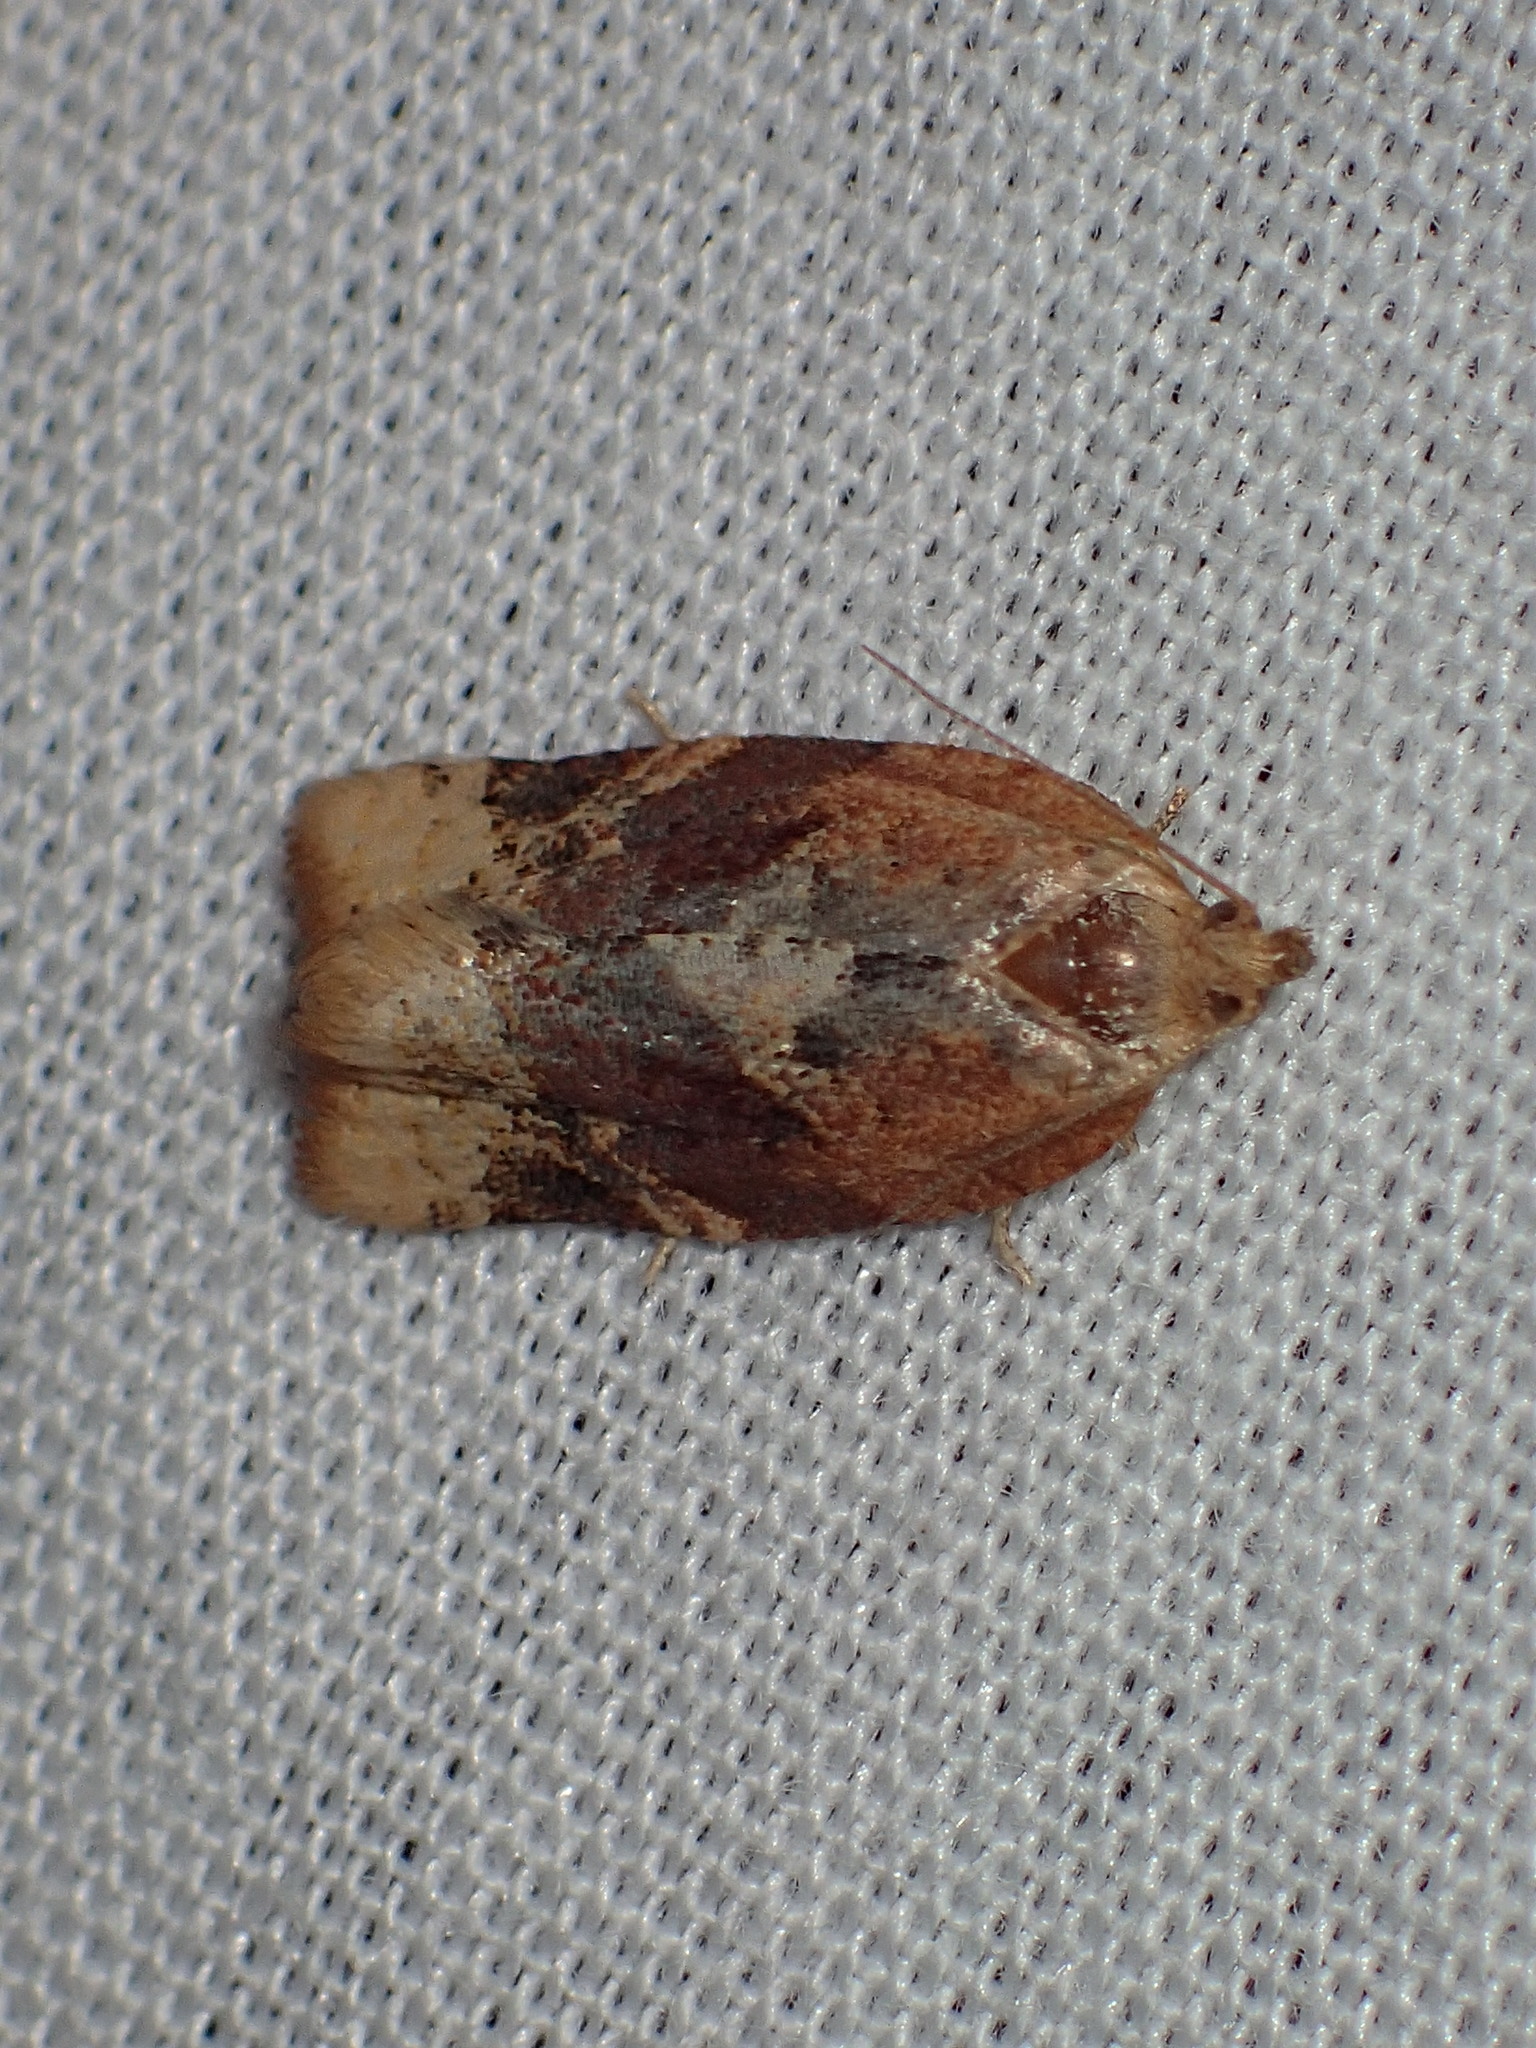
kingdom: Animalia
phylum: Arthropoda
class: Insecta
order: Lepidoptera
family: Tortricidae
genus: Argyrotaenia
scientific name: Argyrotaenia velutinana
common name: Red-banded leafroller moth
